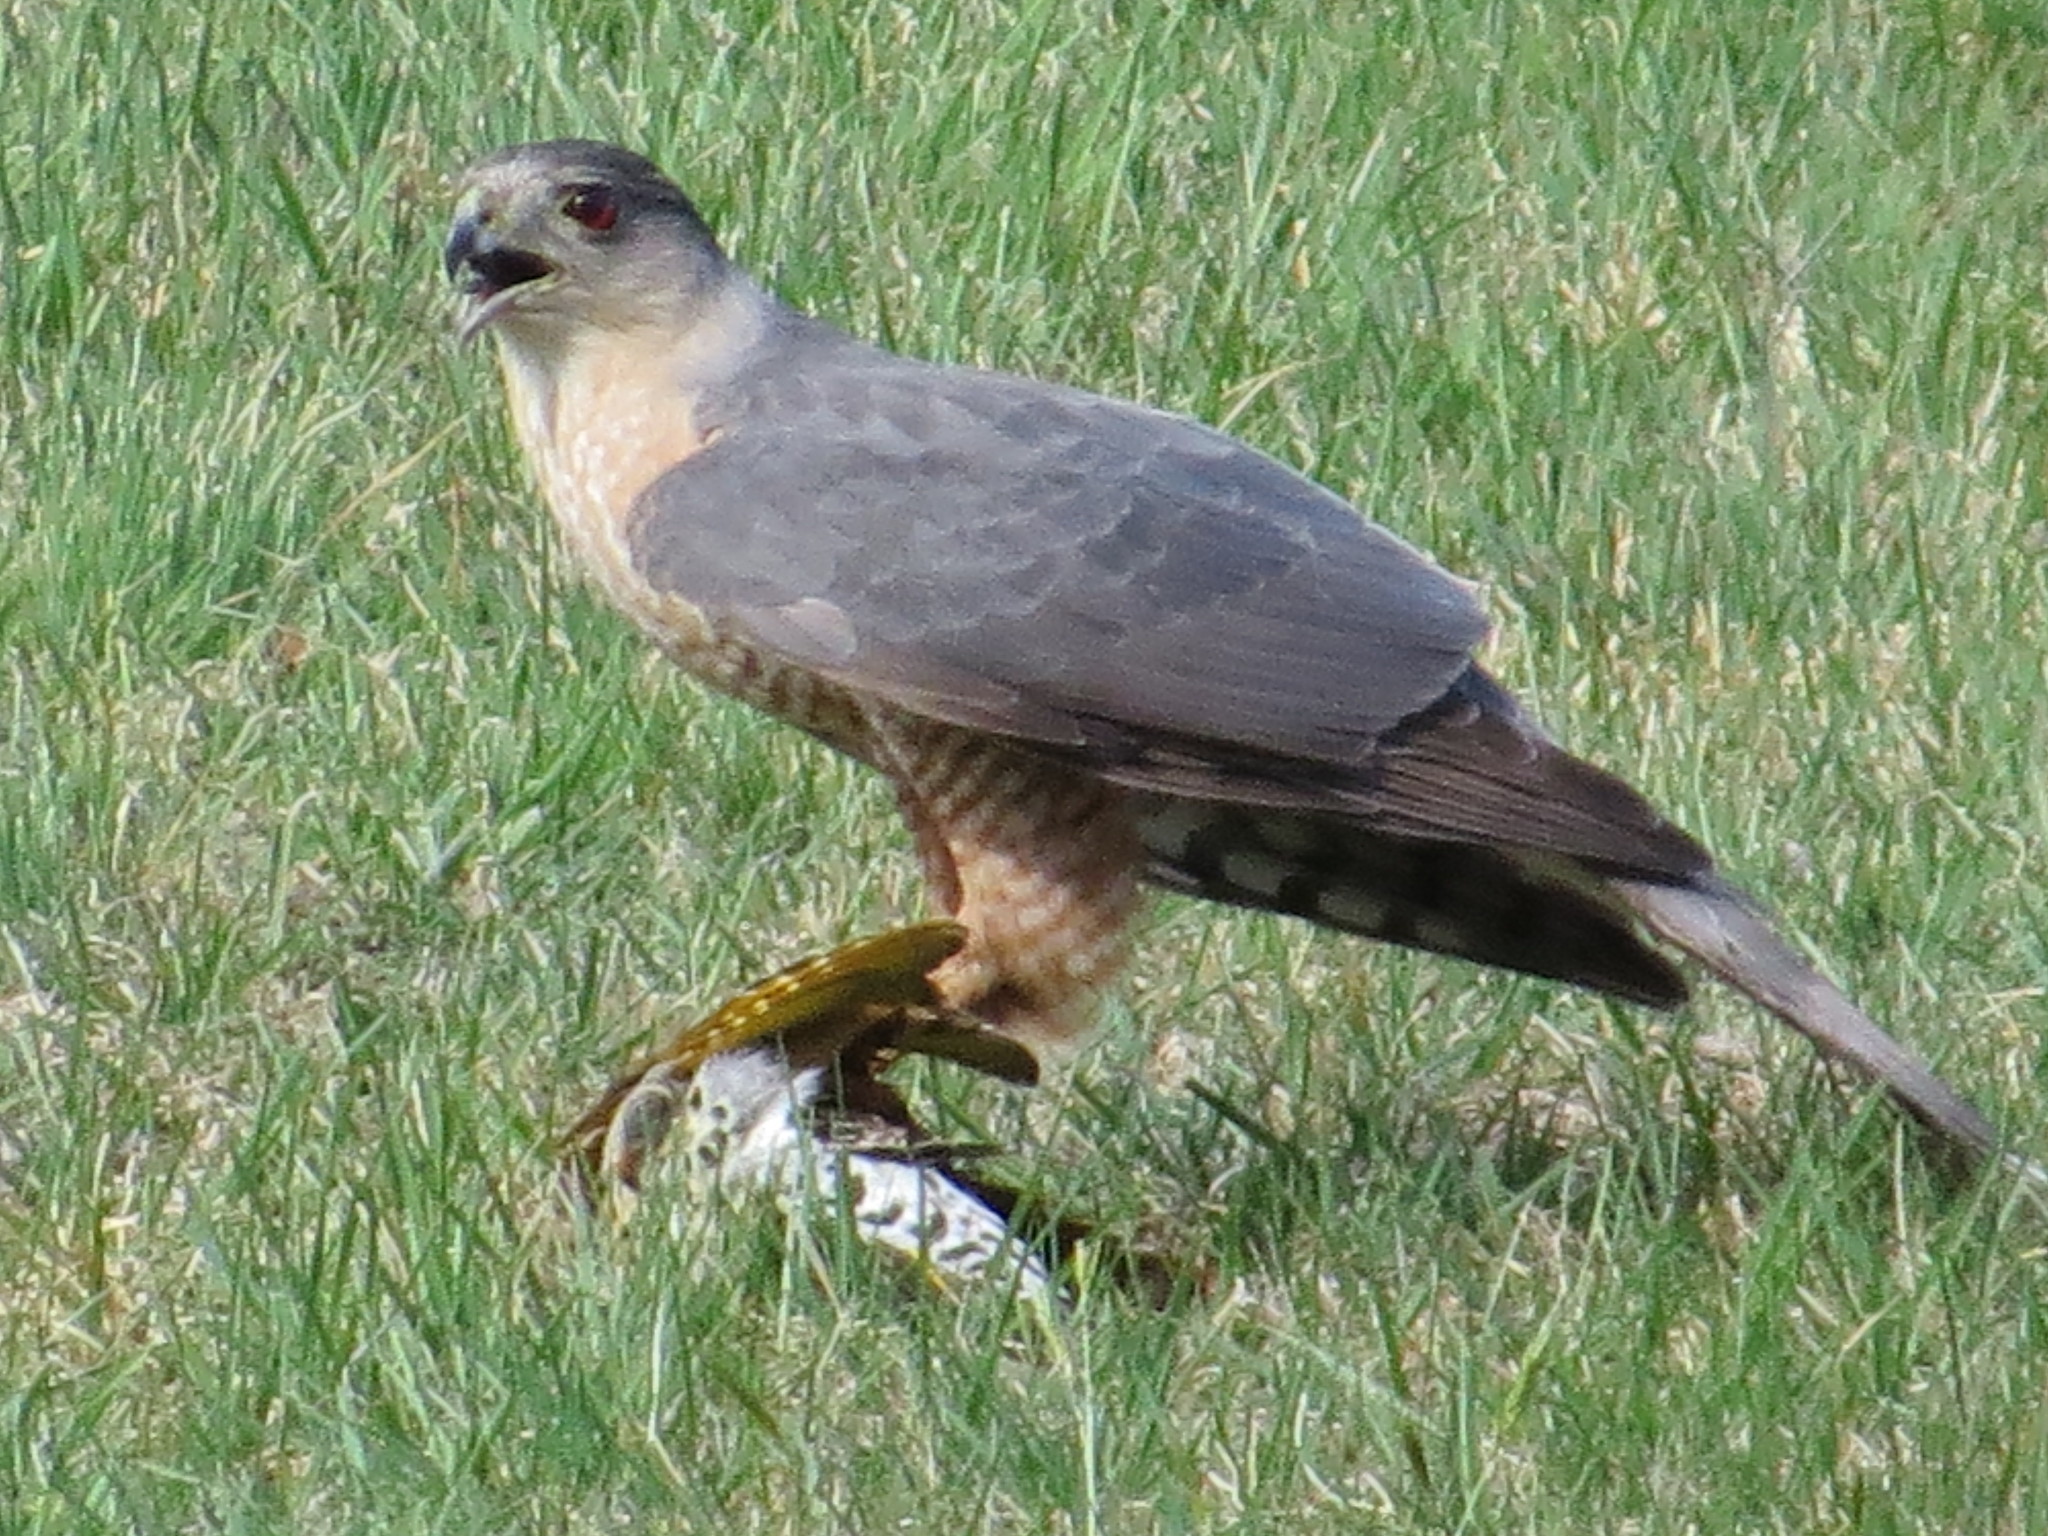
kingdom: Animalia
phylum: Chordata
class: Aves
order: Accipitriformes
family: Accipitridae
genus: Accipiter
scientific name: Accipiter cooperii
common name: Cooper's hawk
